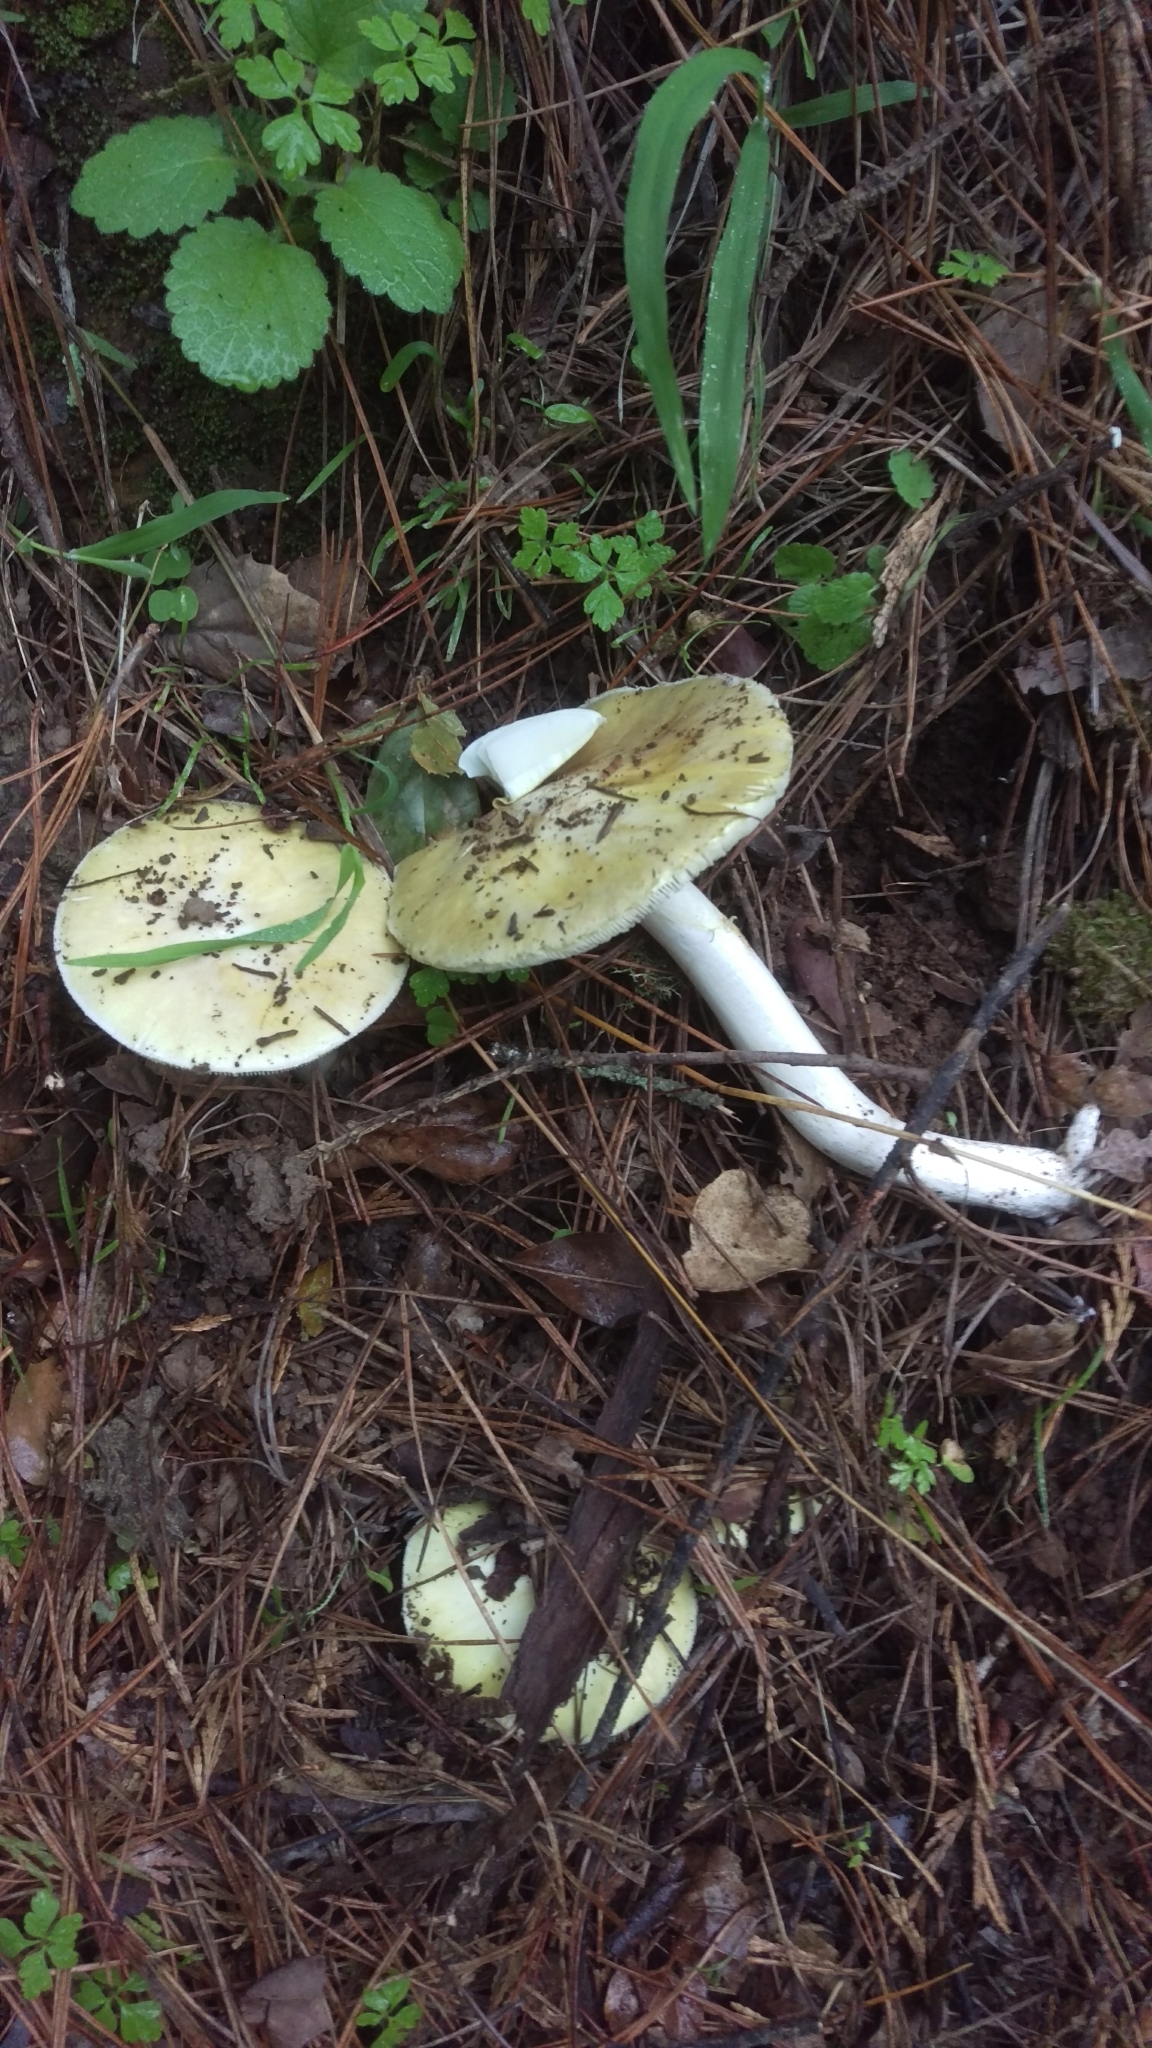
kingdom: Fungi
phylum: Basidiomycota
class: Agaricomycetes
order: Agaricales
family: Amanitaceae
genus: Amanita
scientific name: Amanita phalloides
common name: Death cap
